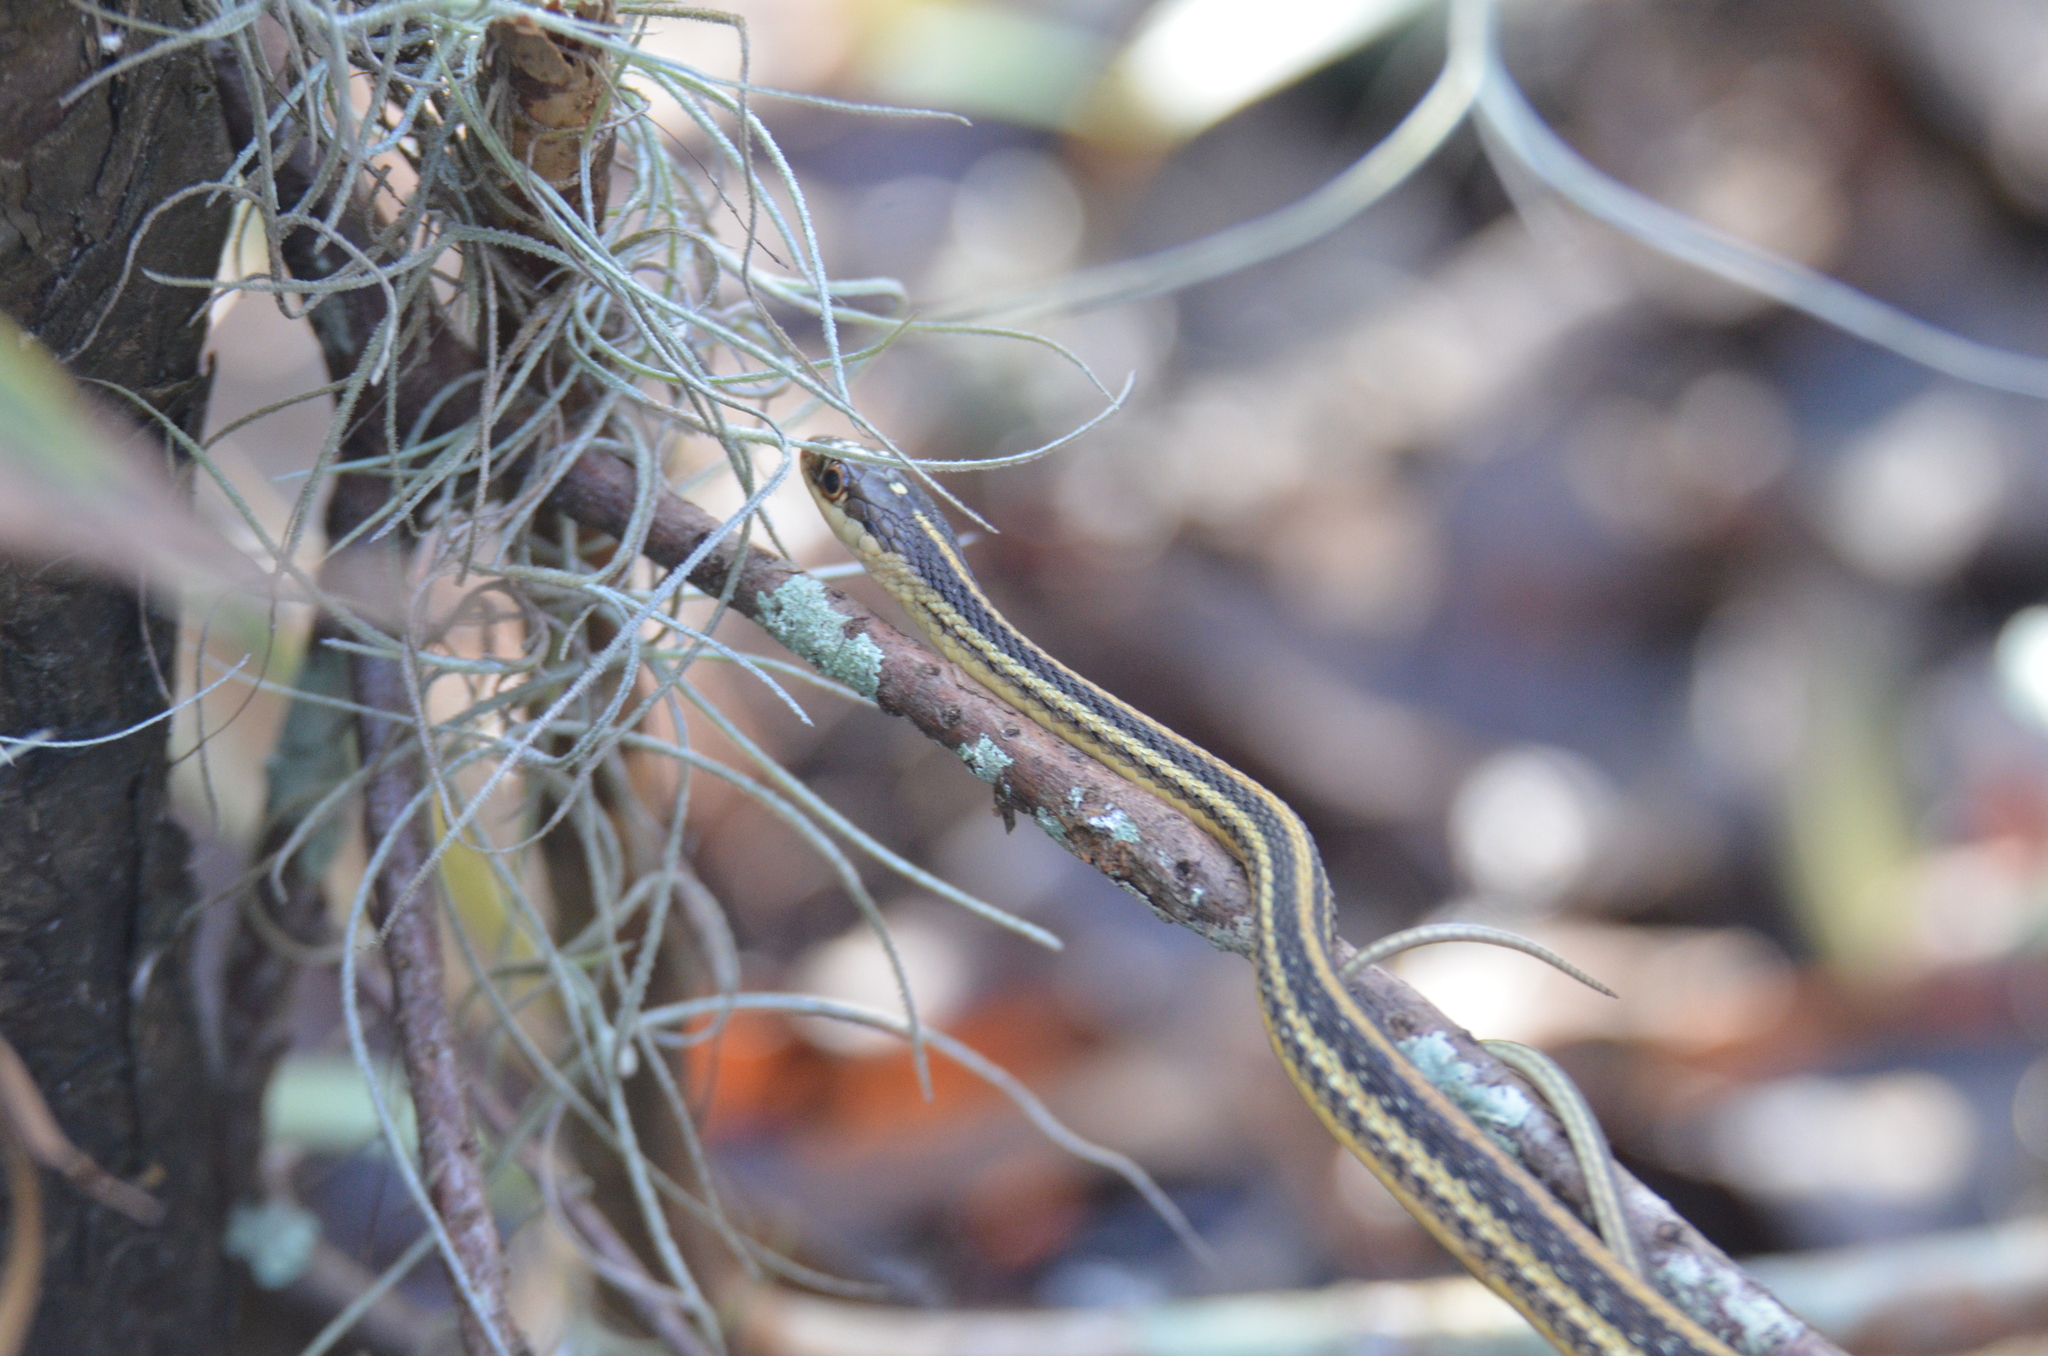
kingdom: Animalia
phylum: Chordata
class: Squamata
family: Colubridae
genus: Thamnophis
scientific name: Thamnophis proximus
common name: Western ribbon snake
